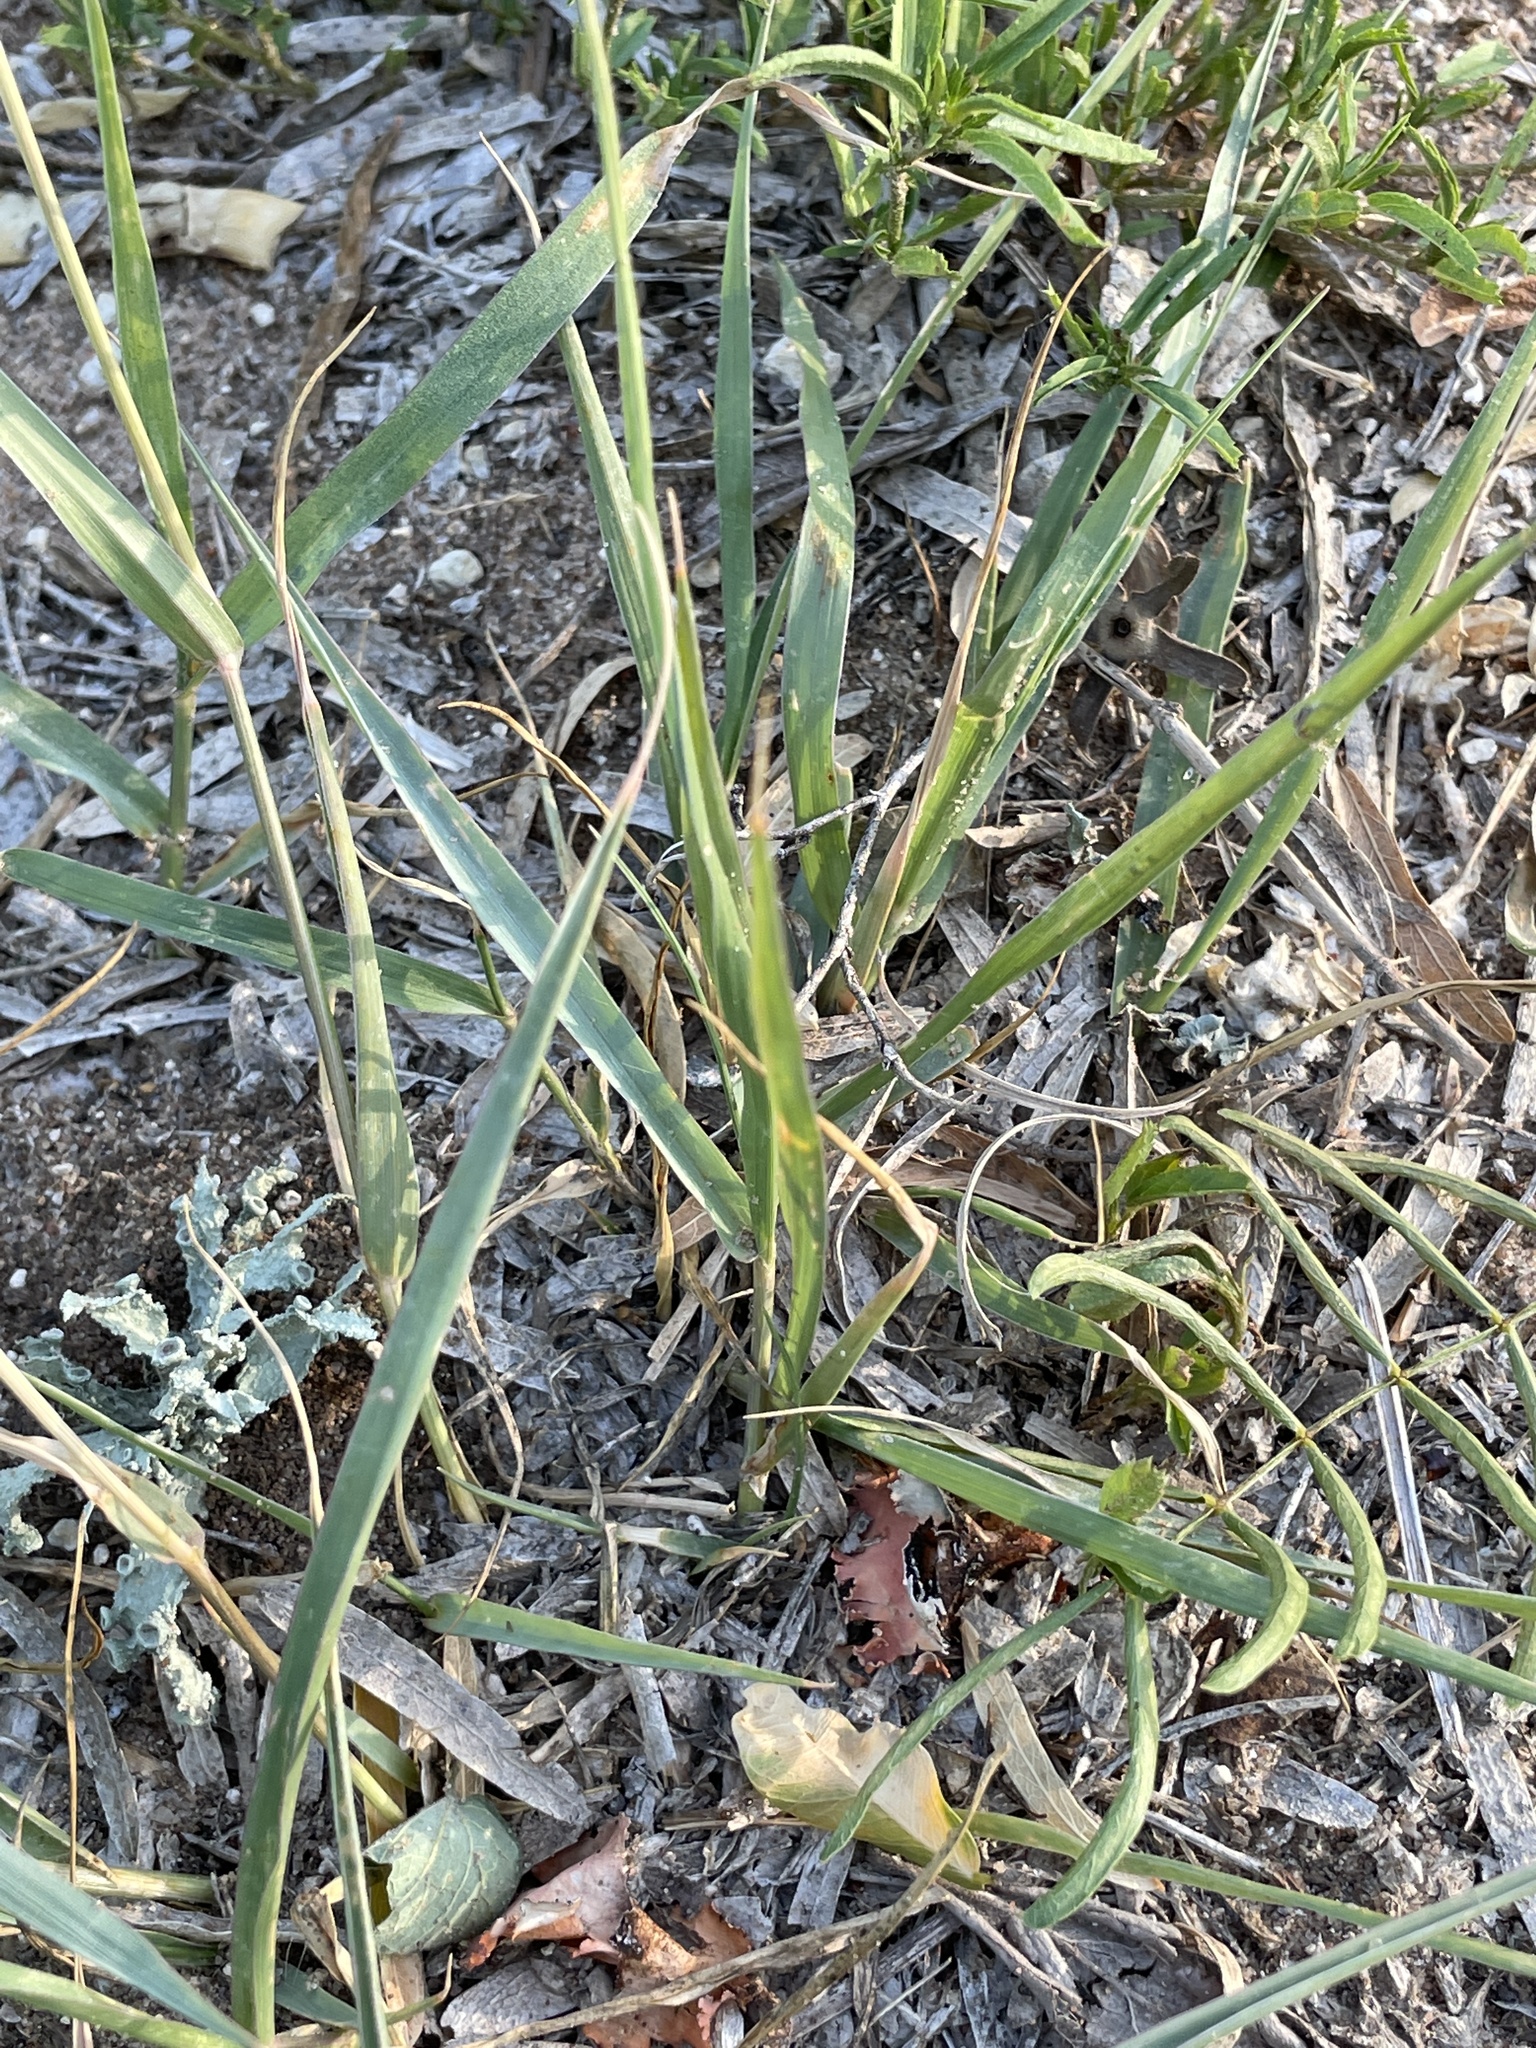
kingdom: Plantae
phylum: Tracheophyta
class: Liliopsida
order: Poales
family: Poaceae
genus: Sporobolus
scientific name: Sporobolus pyramidatus
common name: Whorled dropseed
